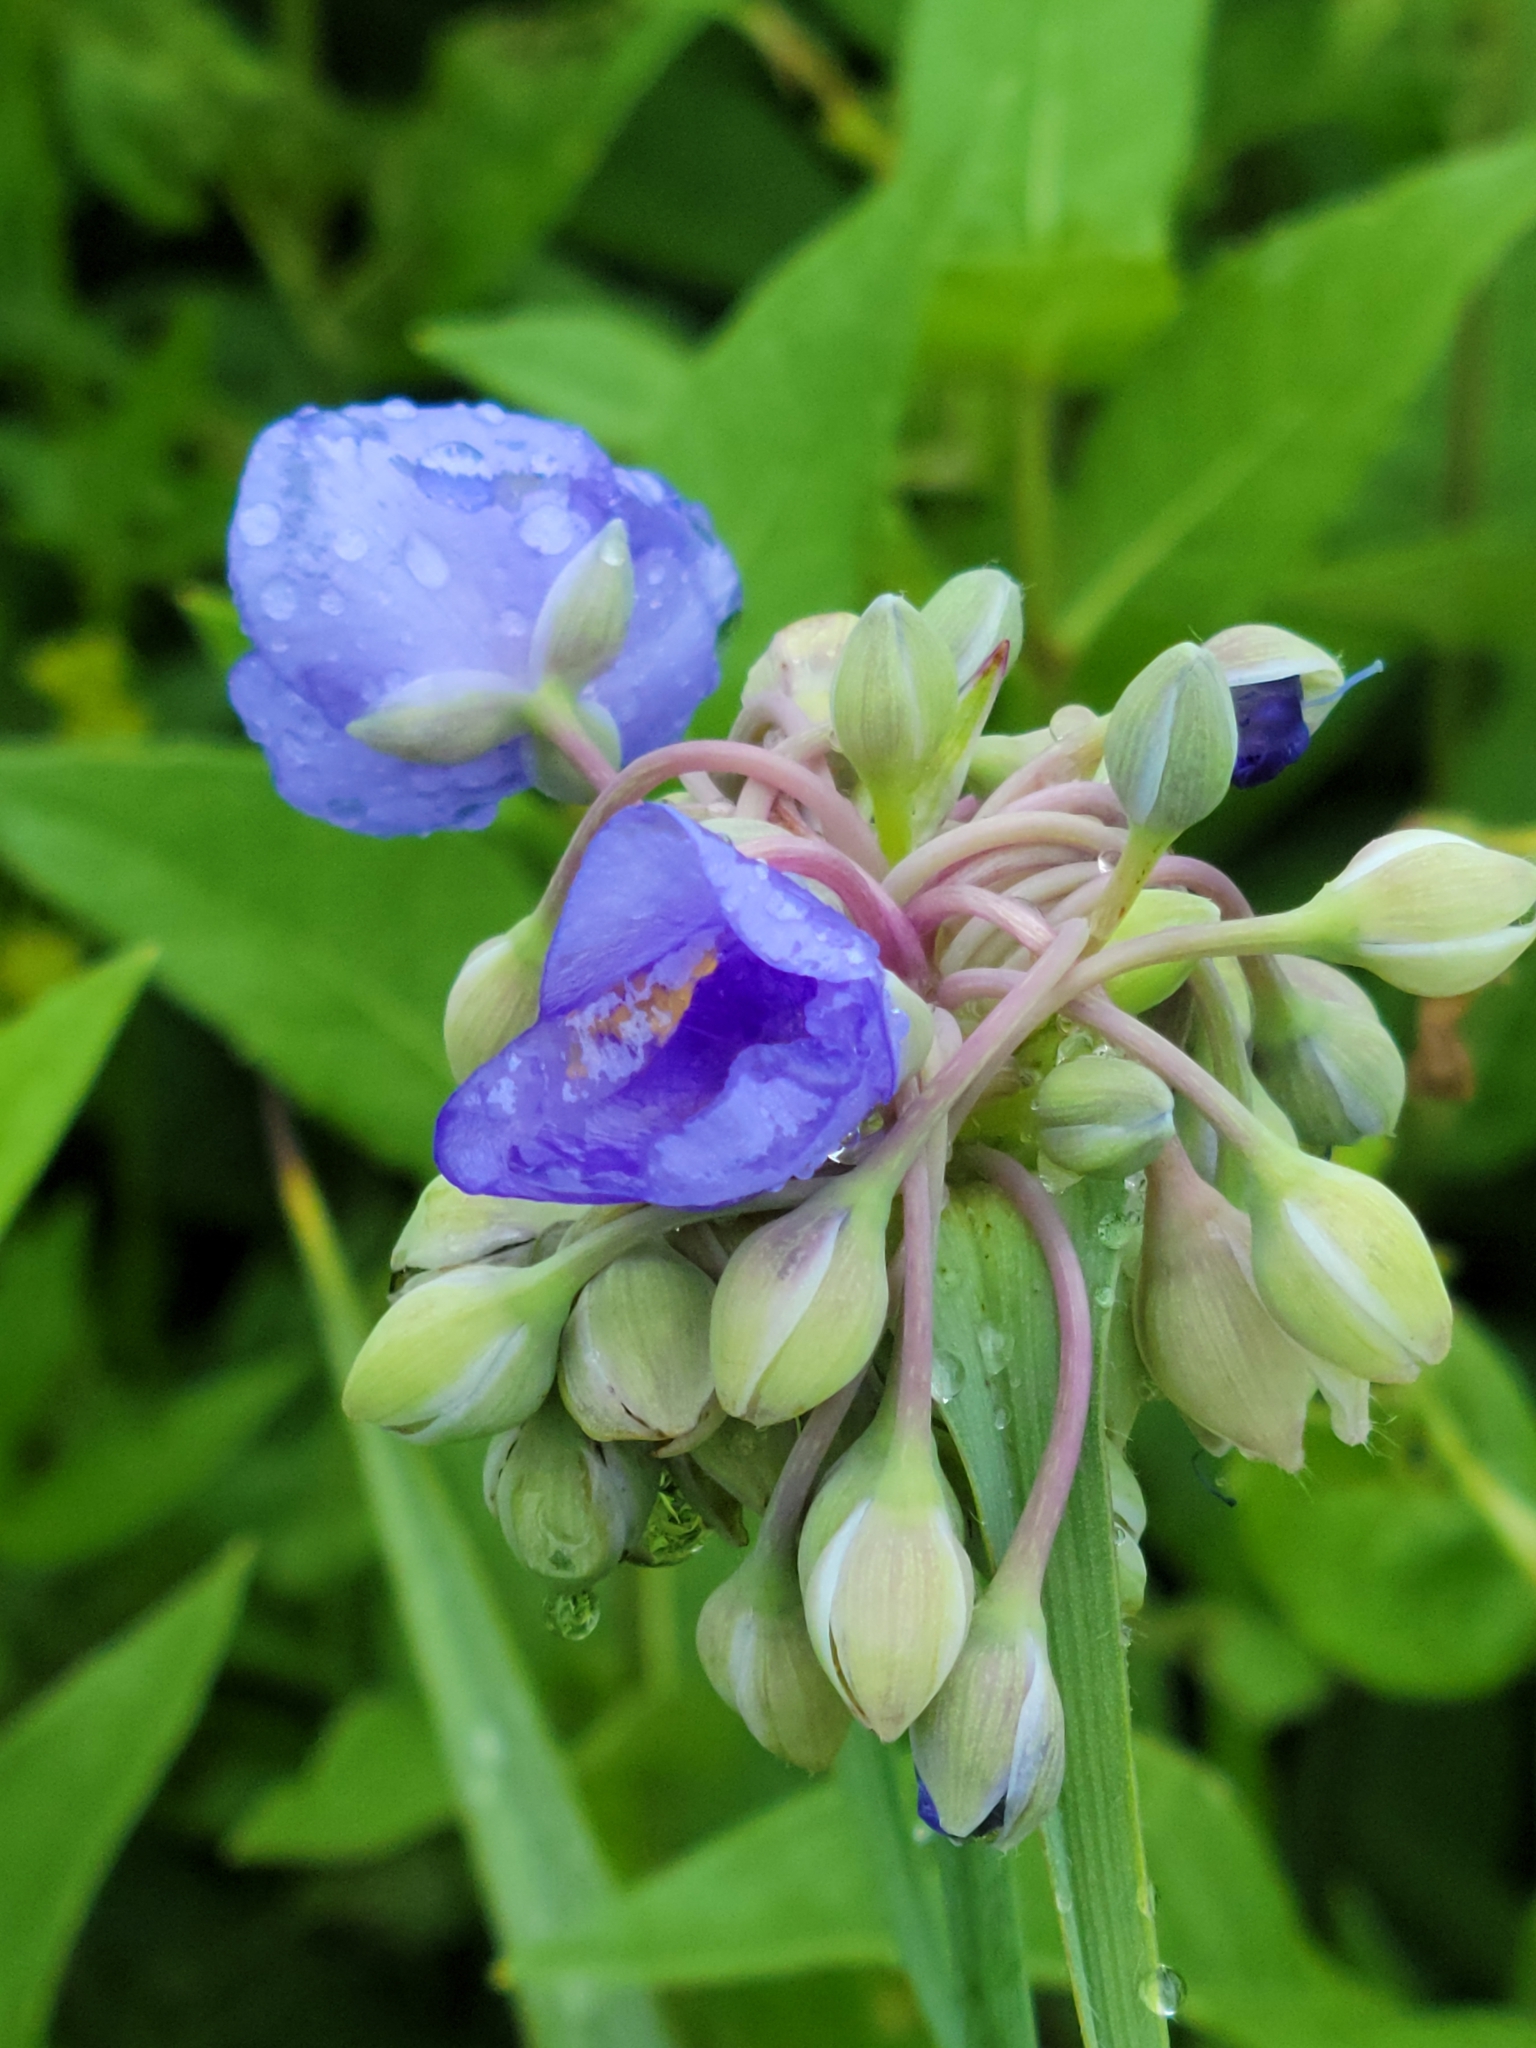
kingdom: Plantae
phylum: Tracheophyta
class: Liliopsida
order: Commelinales
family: Commelinaceae
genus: Tradescantia
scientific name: Tradescantia ohiensis
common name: Ohio spiderwort
